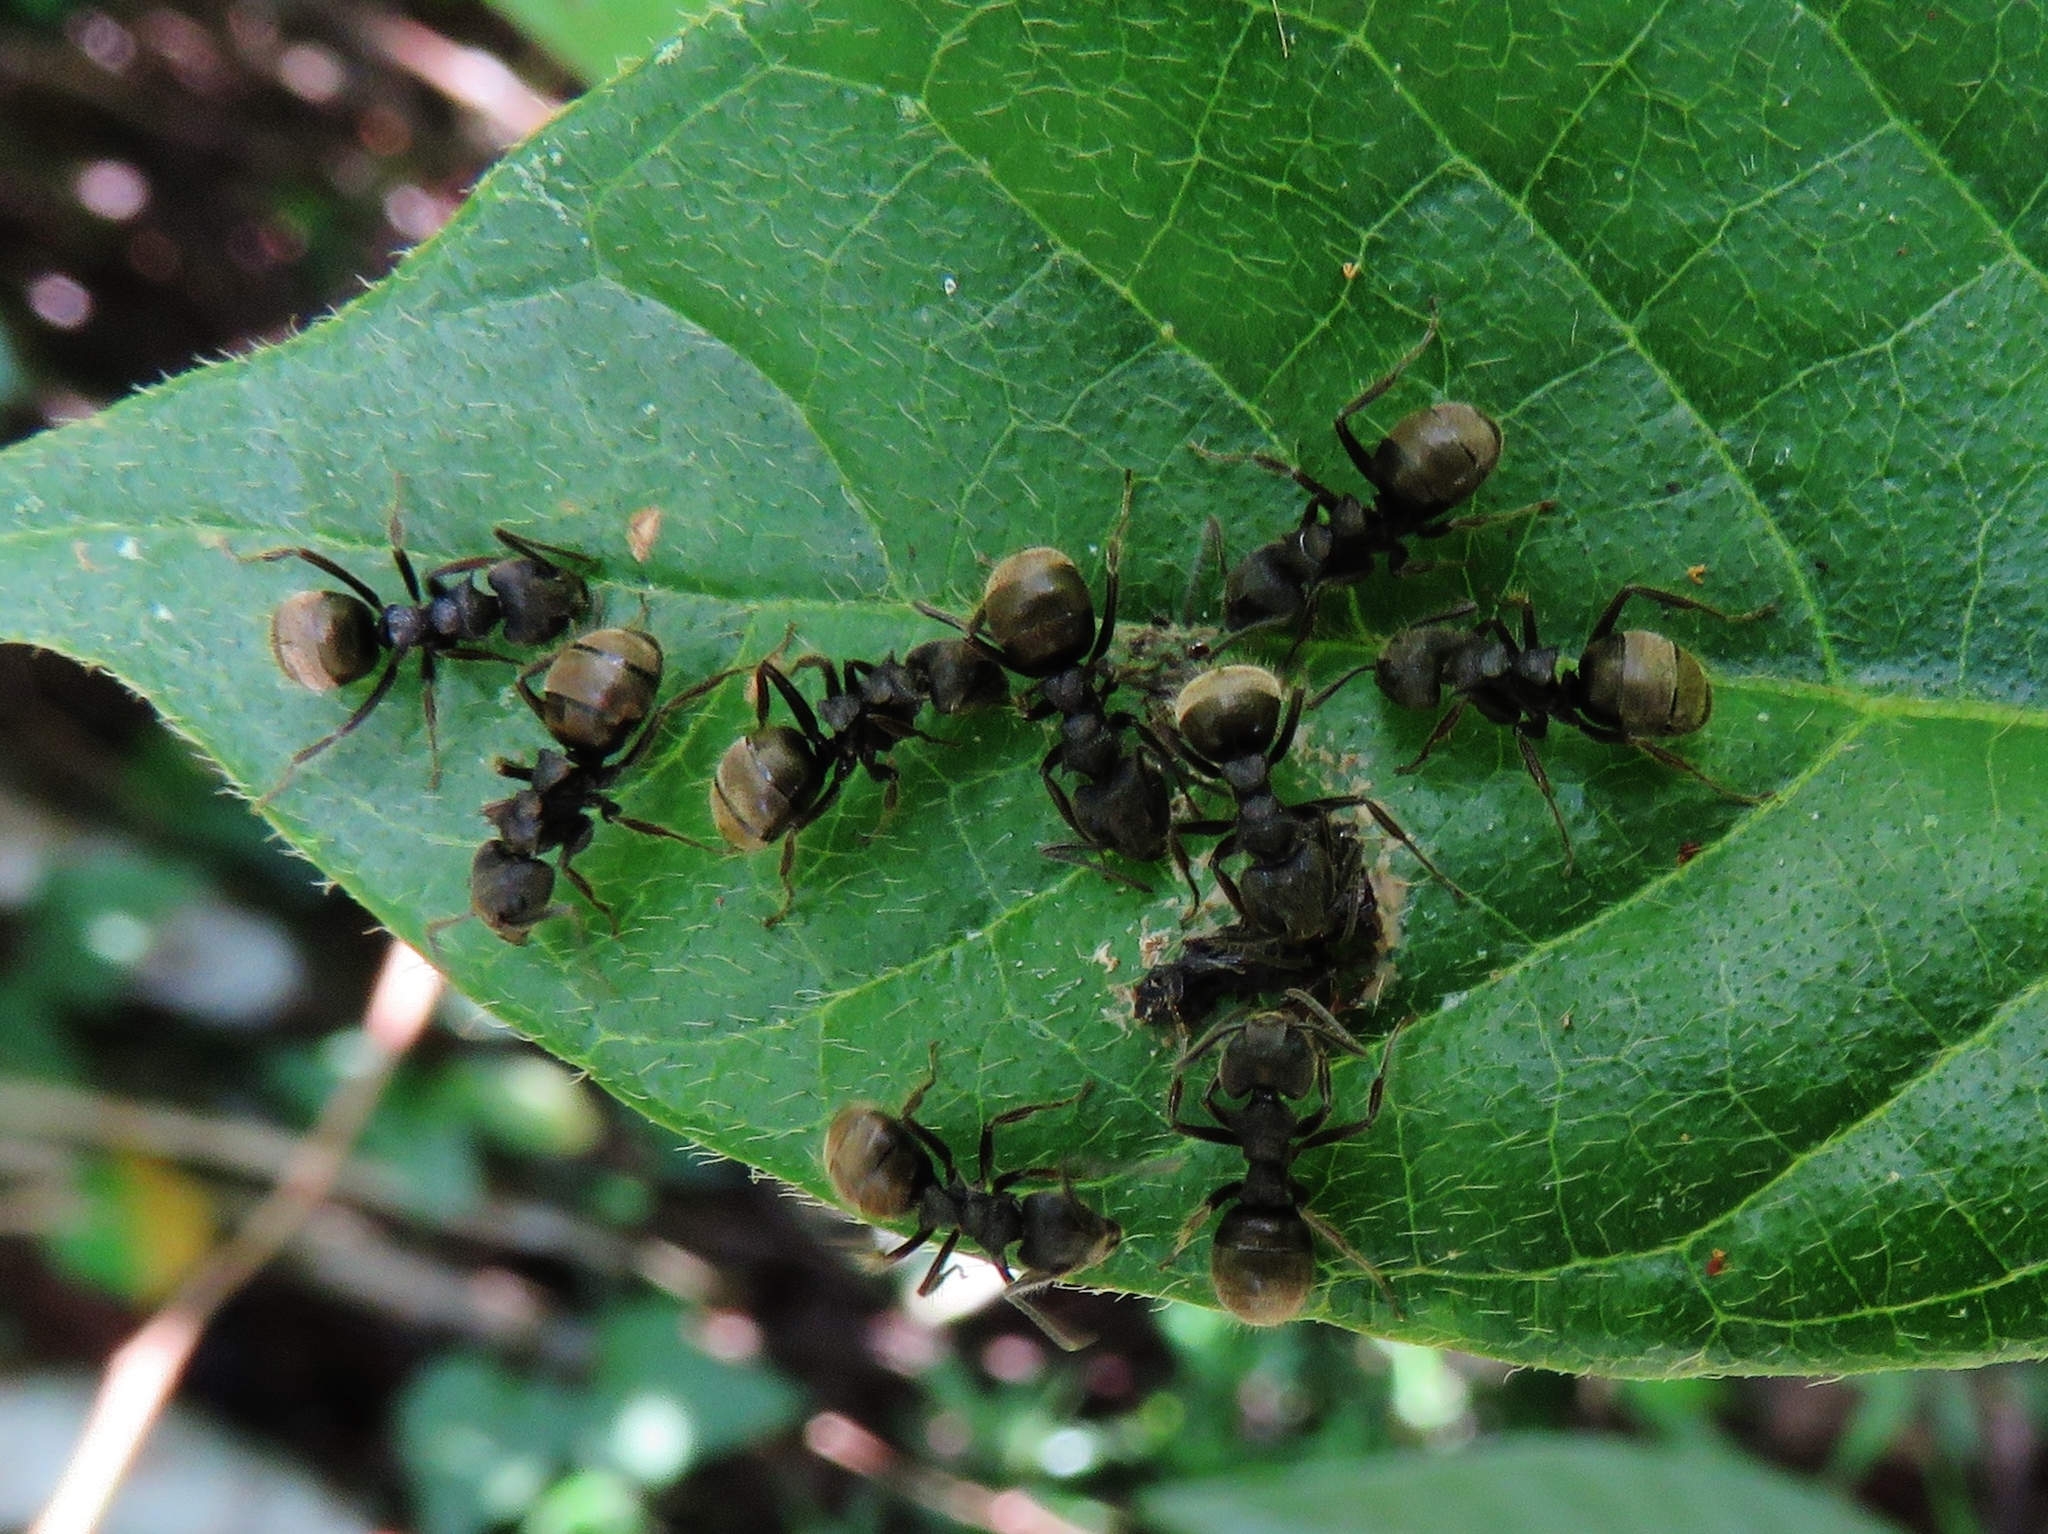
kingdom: Animalia
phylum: Arthropoda
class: Insecta
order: Hymenoptera
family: Formicidae
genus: Dolichoderus
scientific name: Dolichoderus bispinosus
